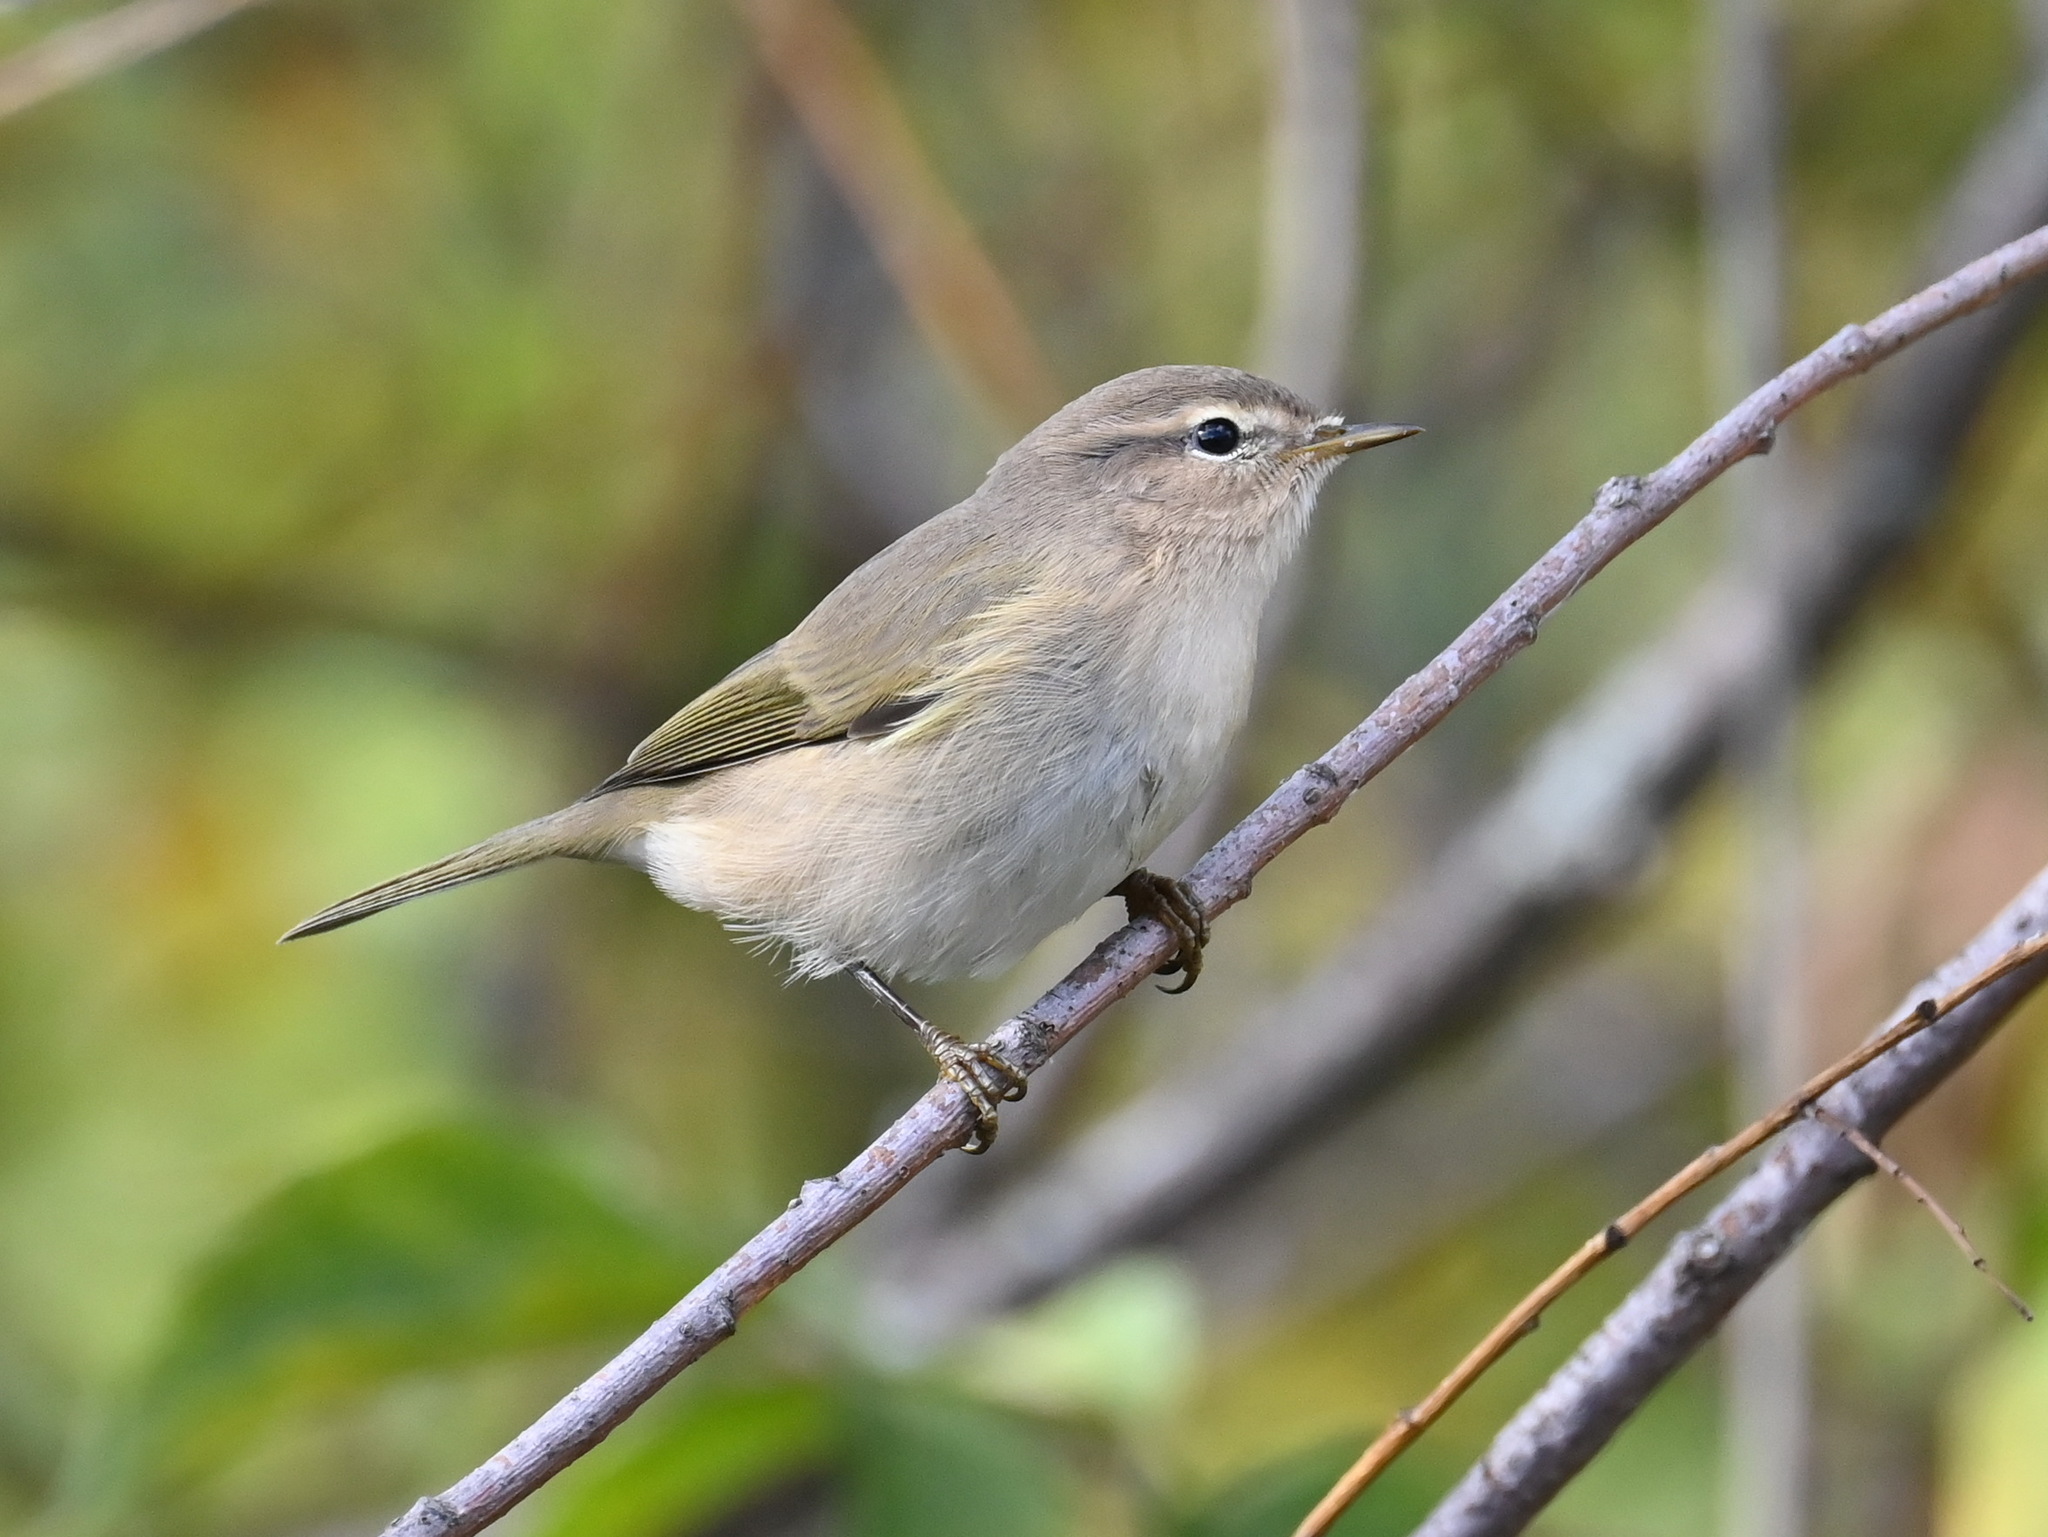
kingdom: Animalia
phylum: Chordata
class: Aves
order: Passeriformes
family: Phylloscopidae
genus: Phylloscopus
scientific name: Phylloscopus collybita
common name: Common chiffchaff
